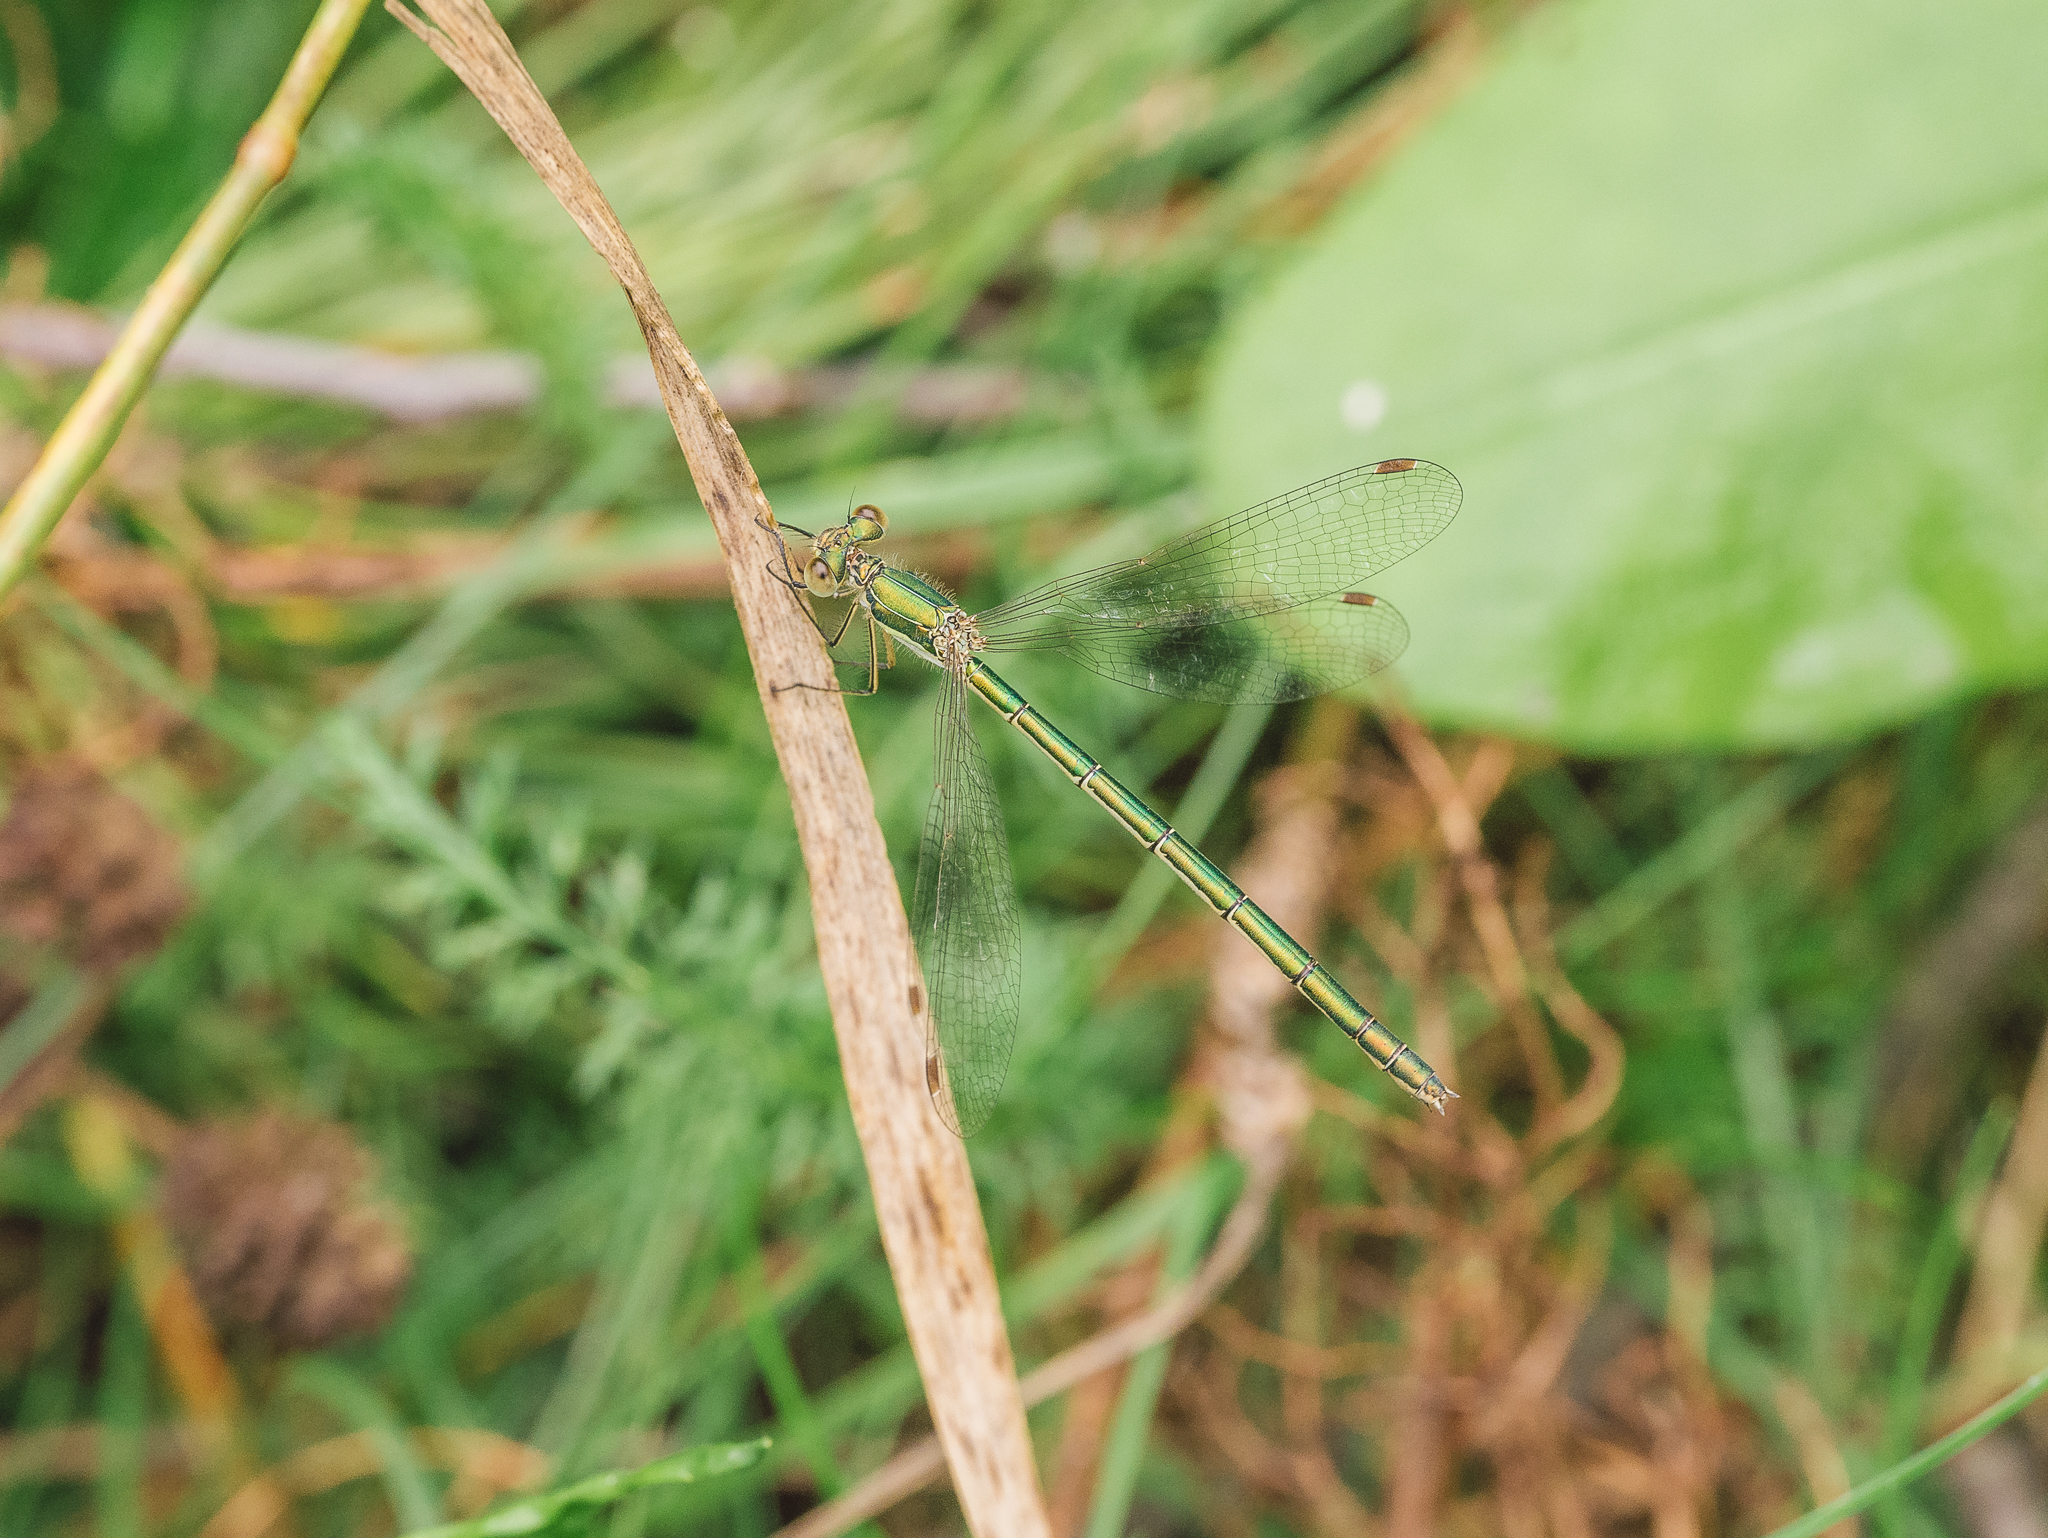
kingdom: Animalia
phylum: Arthropoda
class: Insecta
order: Odonata
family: Lestidae
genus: Lestes
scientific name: Lestes virens
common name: Small emerald spreadwing
